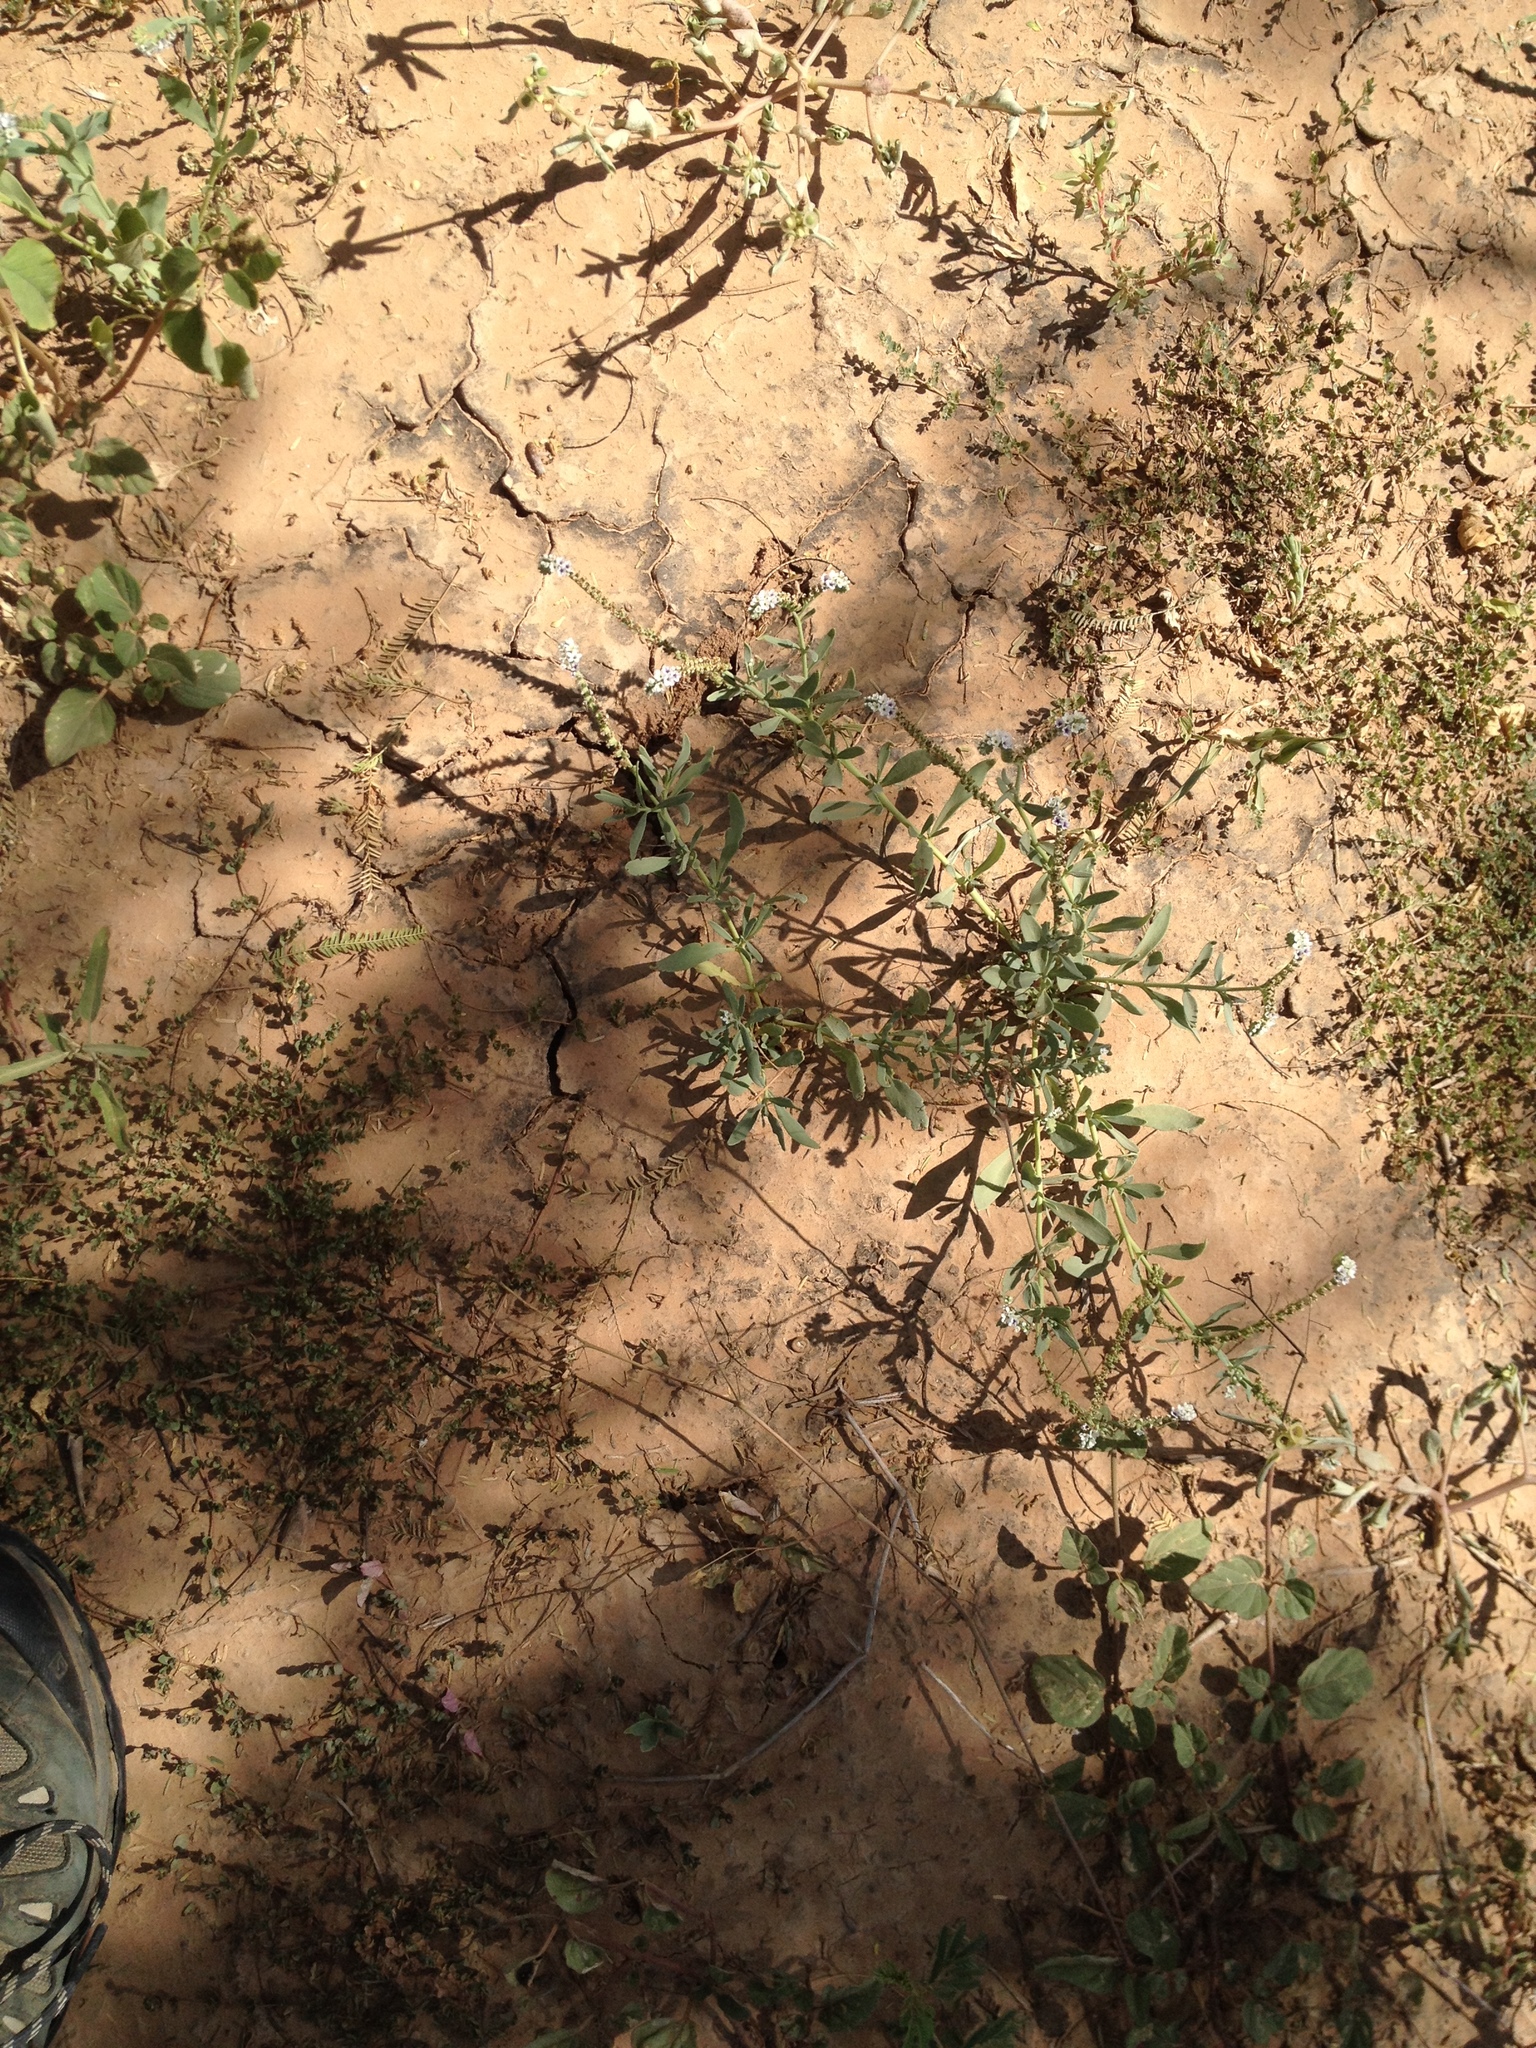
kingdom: Plantae
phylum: Tracheophyta
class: Magnoliopsida
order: Boraginales
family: Heliotropiaceae
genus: Heliotropium
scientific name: Heliotropium curassavicum
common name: Seaside heliotrope
